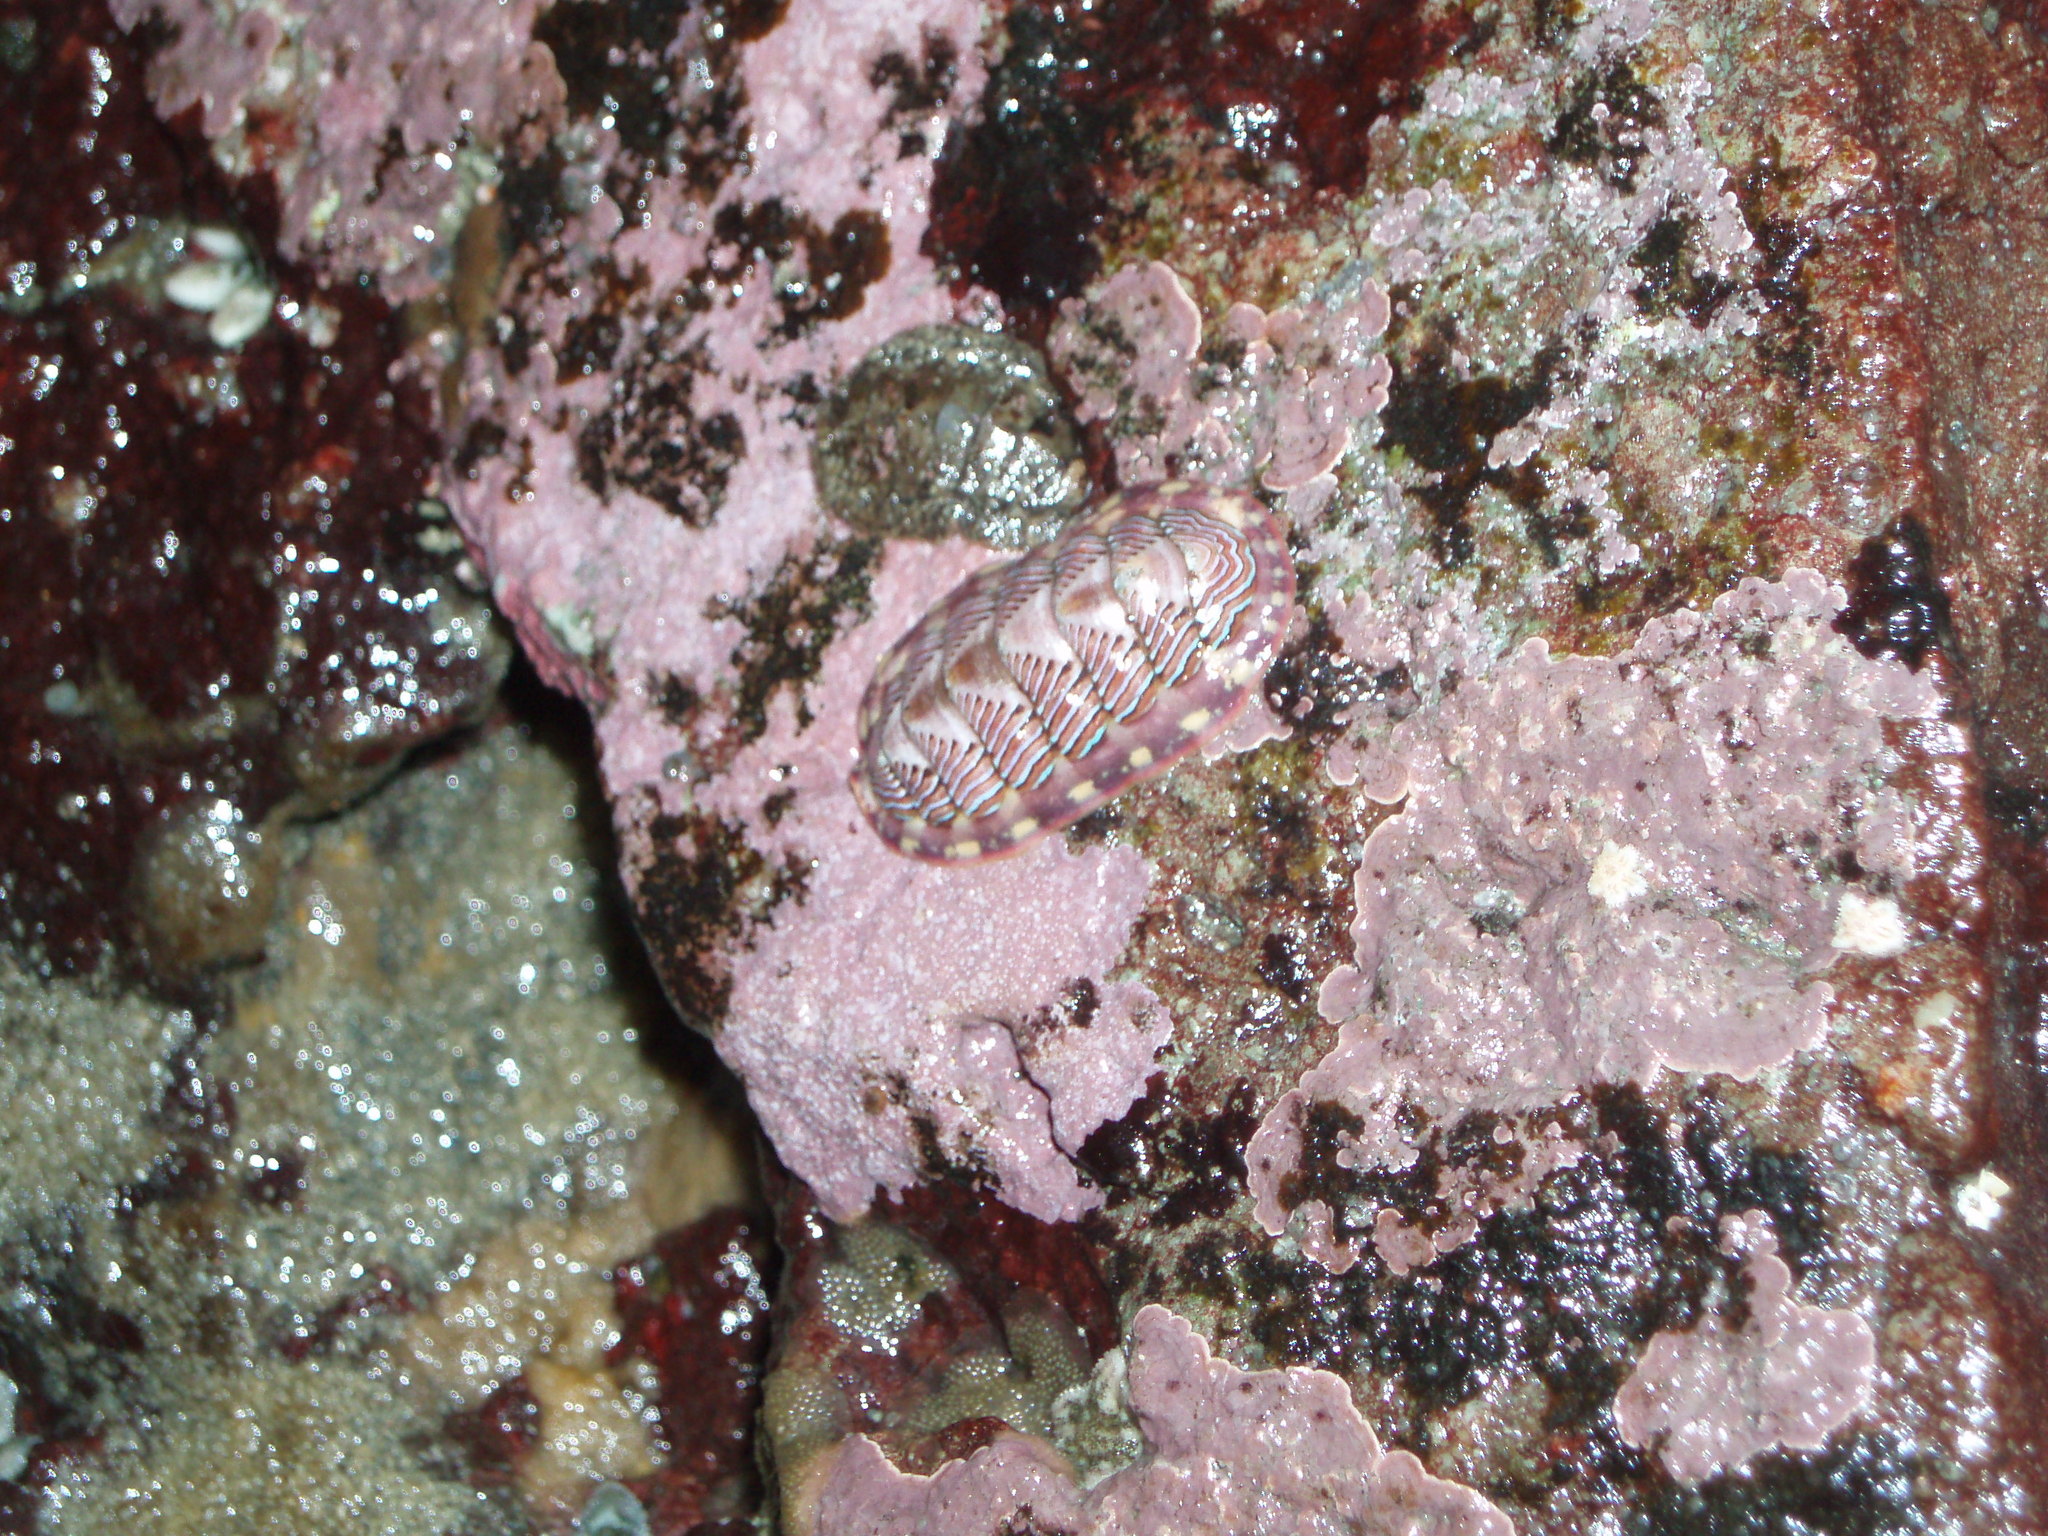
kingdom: Animalia
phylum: Mollusca
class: Polyplacophora
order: Chitonida
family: Tonicellidae
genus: Tonicella
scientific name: Tonicella lokii
